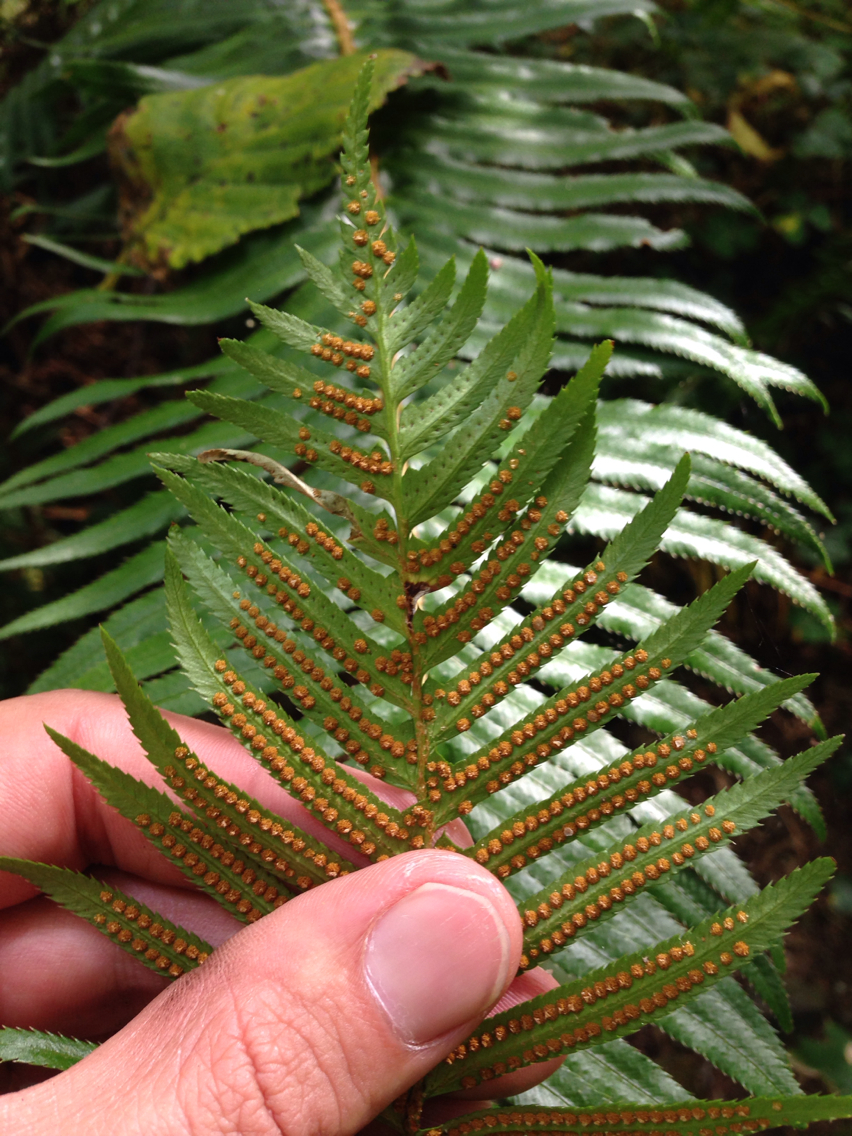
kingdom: Plantae
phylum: Tracheophyta
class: Polypodiopsida
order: Polypodiales
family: Dryopteridaceae
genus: Polystichum
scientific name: Polystichum munitum
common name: Western sword-fern
